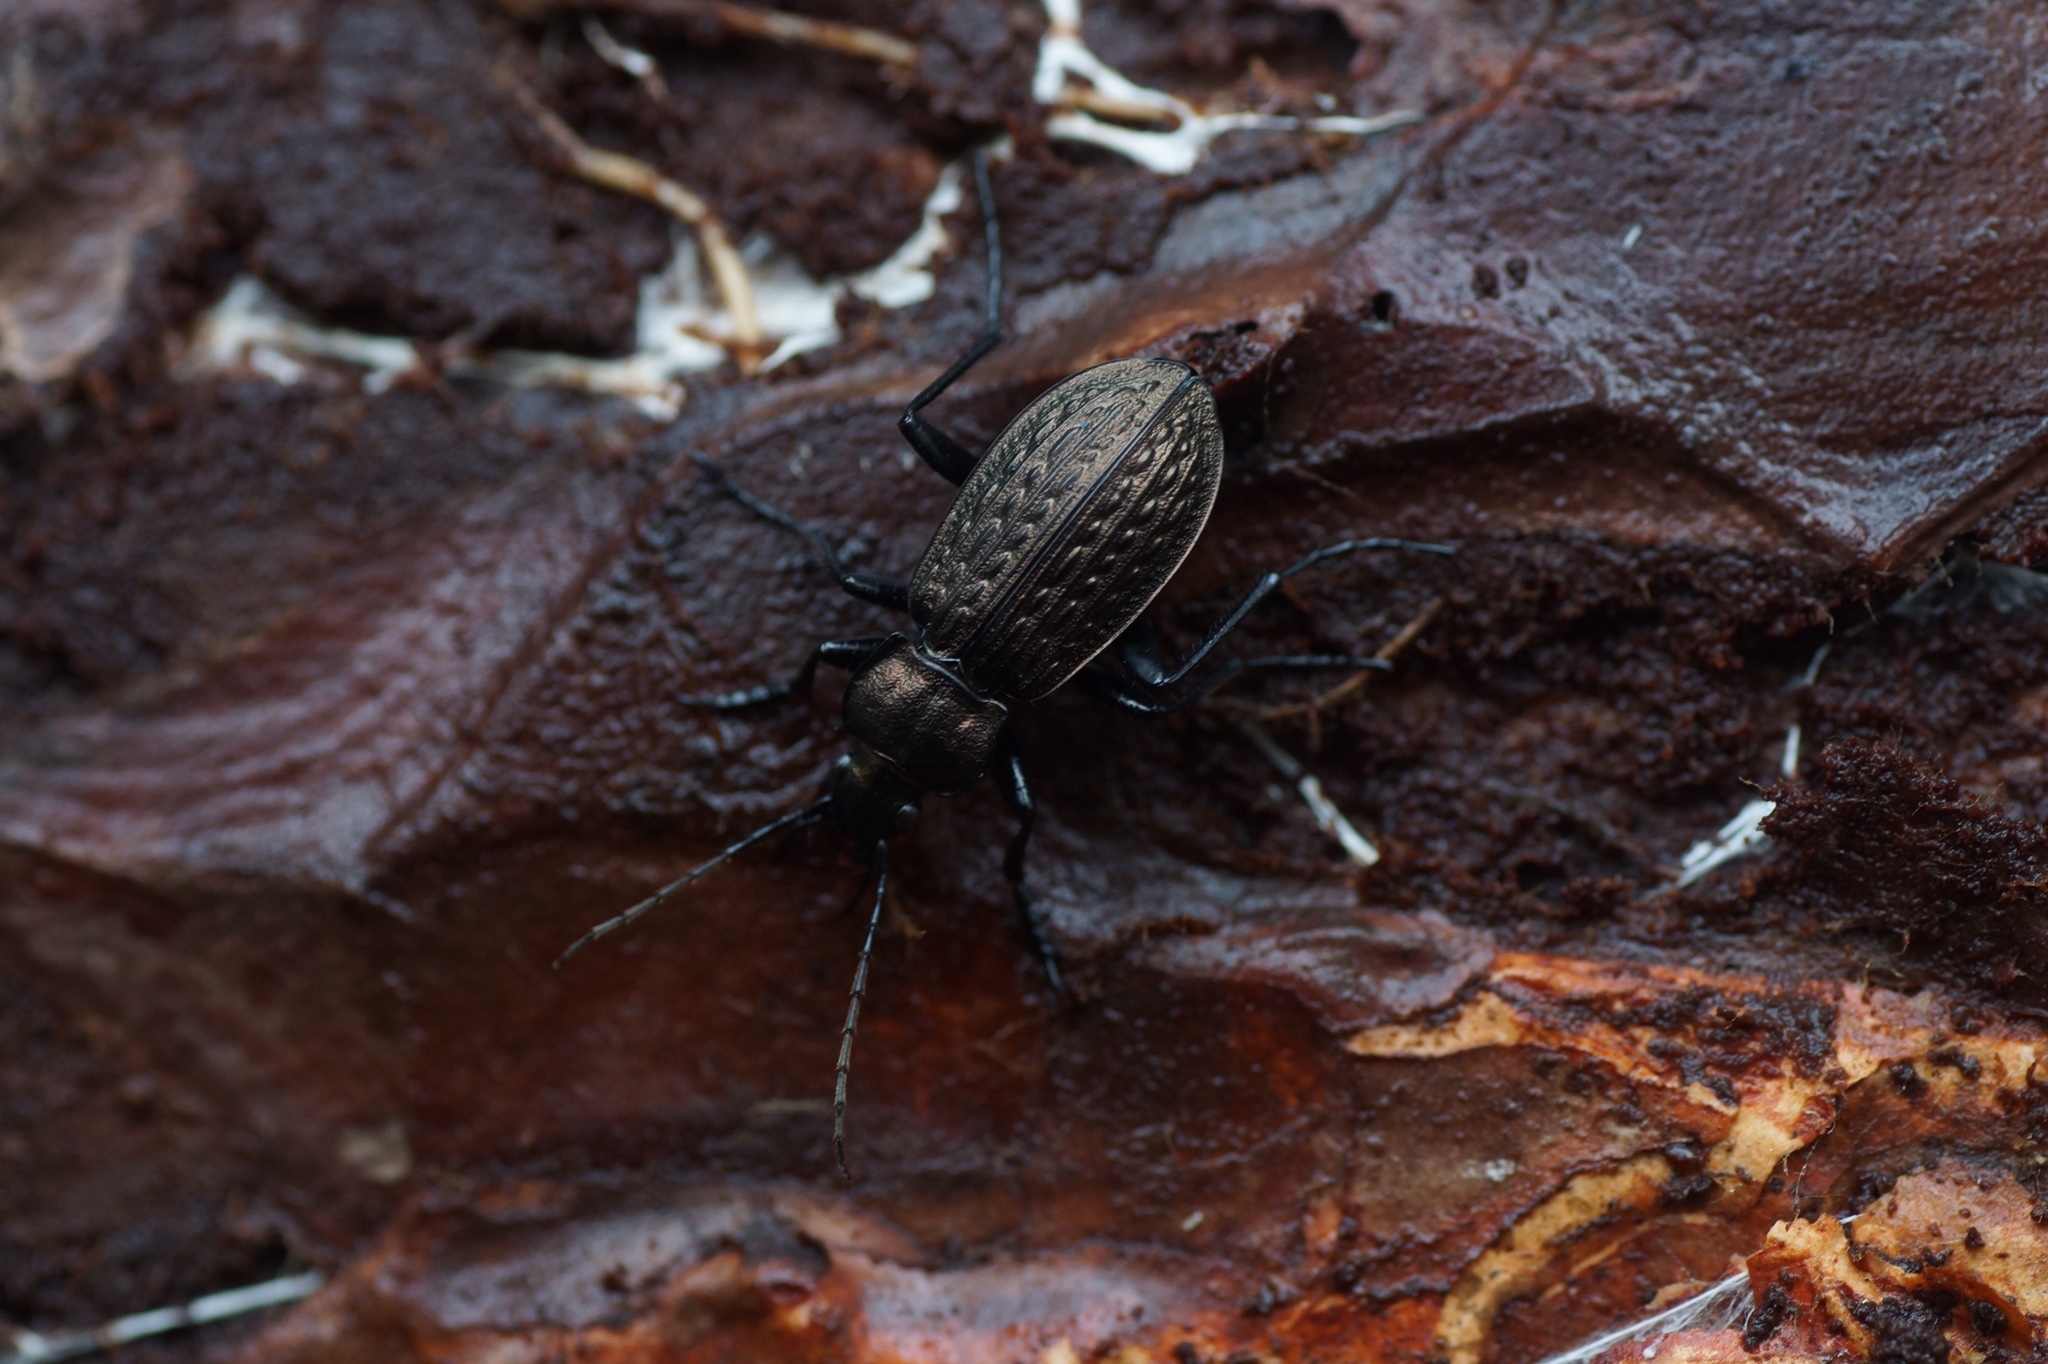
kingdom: Animalia
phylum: Arthropoda
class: Insecta
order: Coleoptera
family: Carabidae
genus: Carabus
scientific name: Carabus granulatus
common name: Granulate ground beetle
